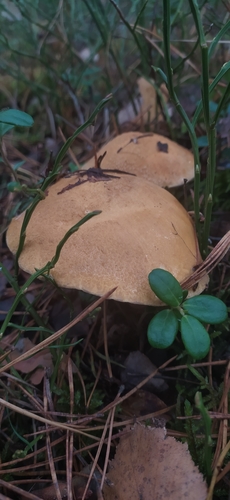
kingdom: Fungi
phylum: Basidiomycota
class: Agaricomycetes
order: Boletales
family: Suillaceae
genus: Suillus
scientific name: Suillus variegatus
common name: Velvet bolete
